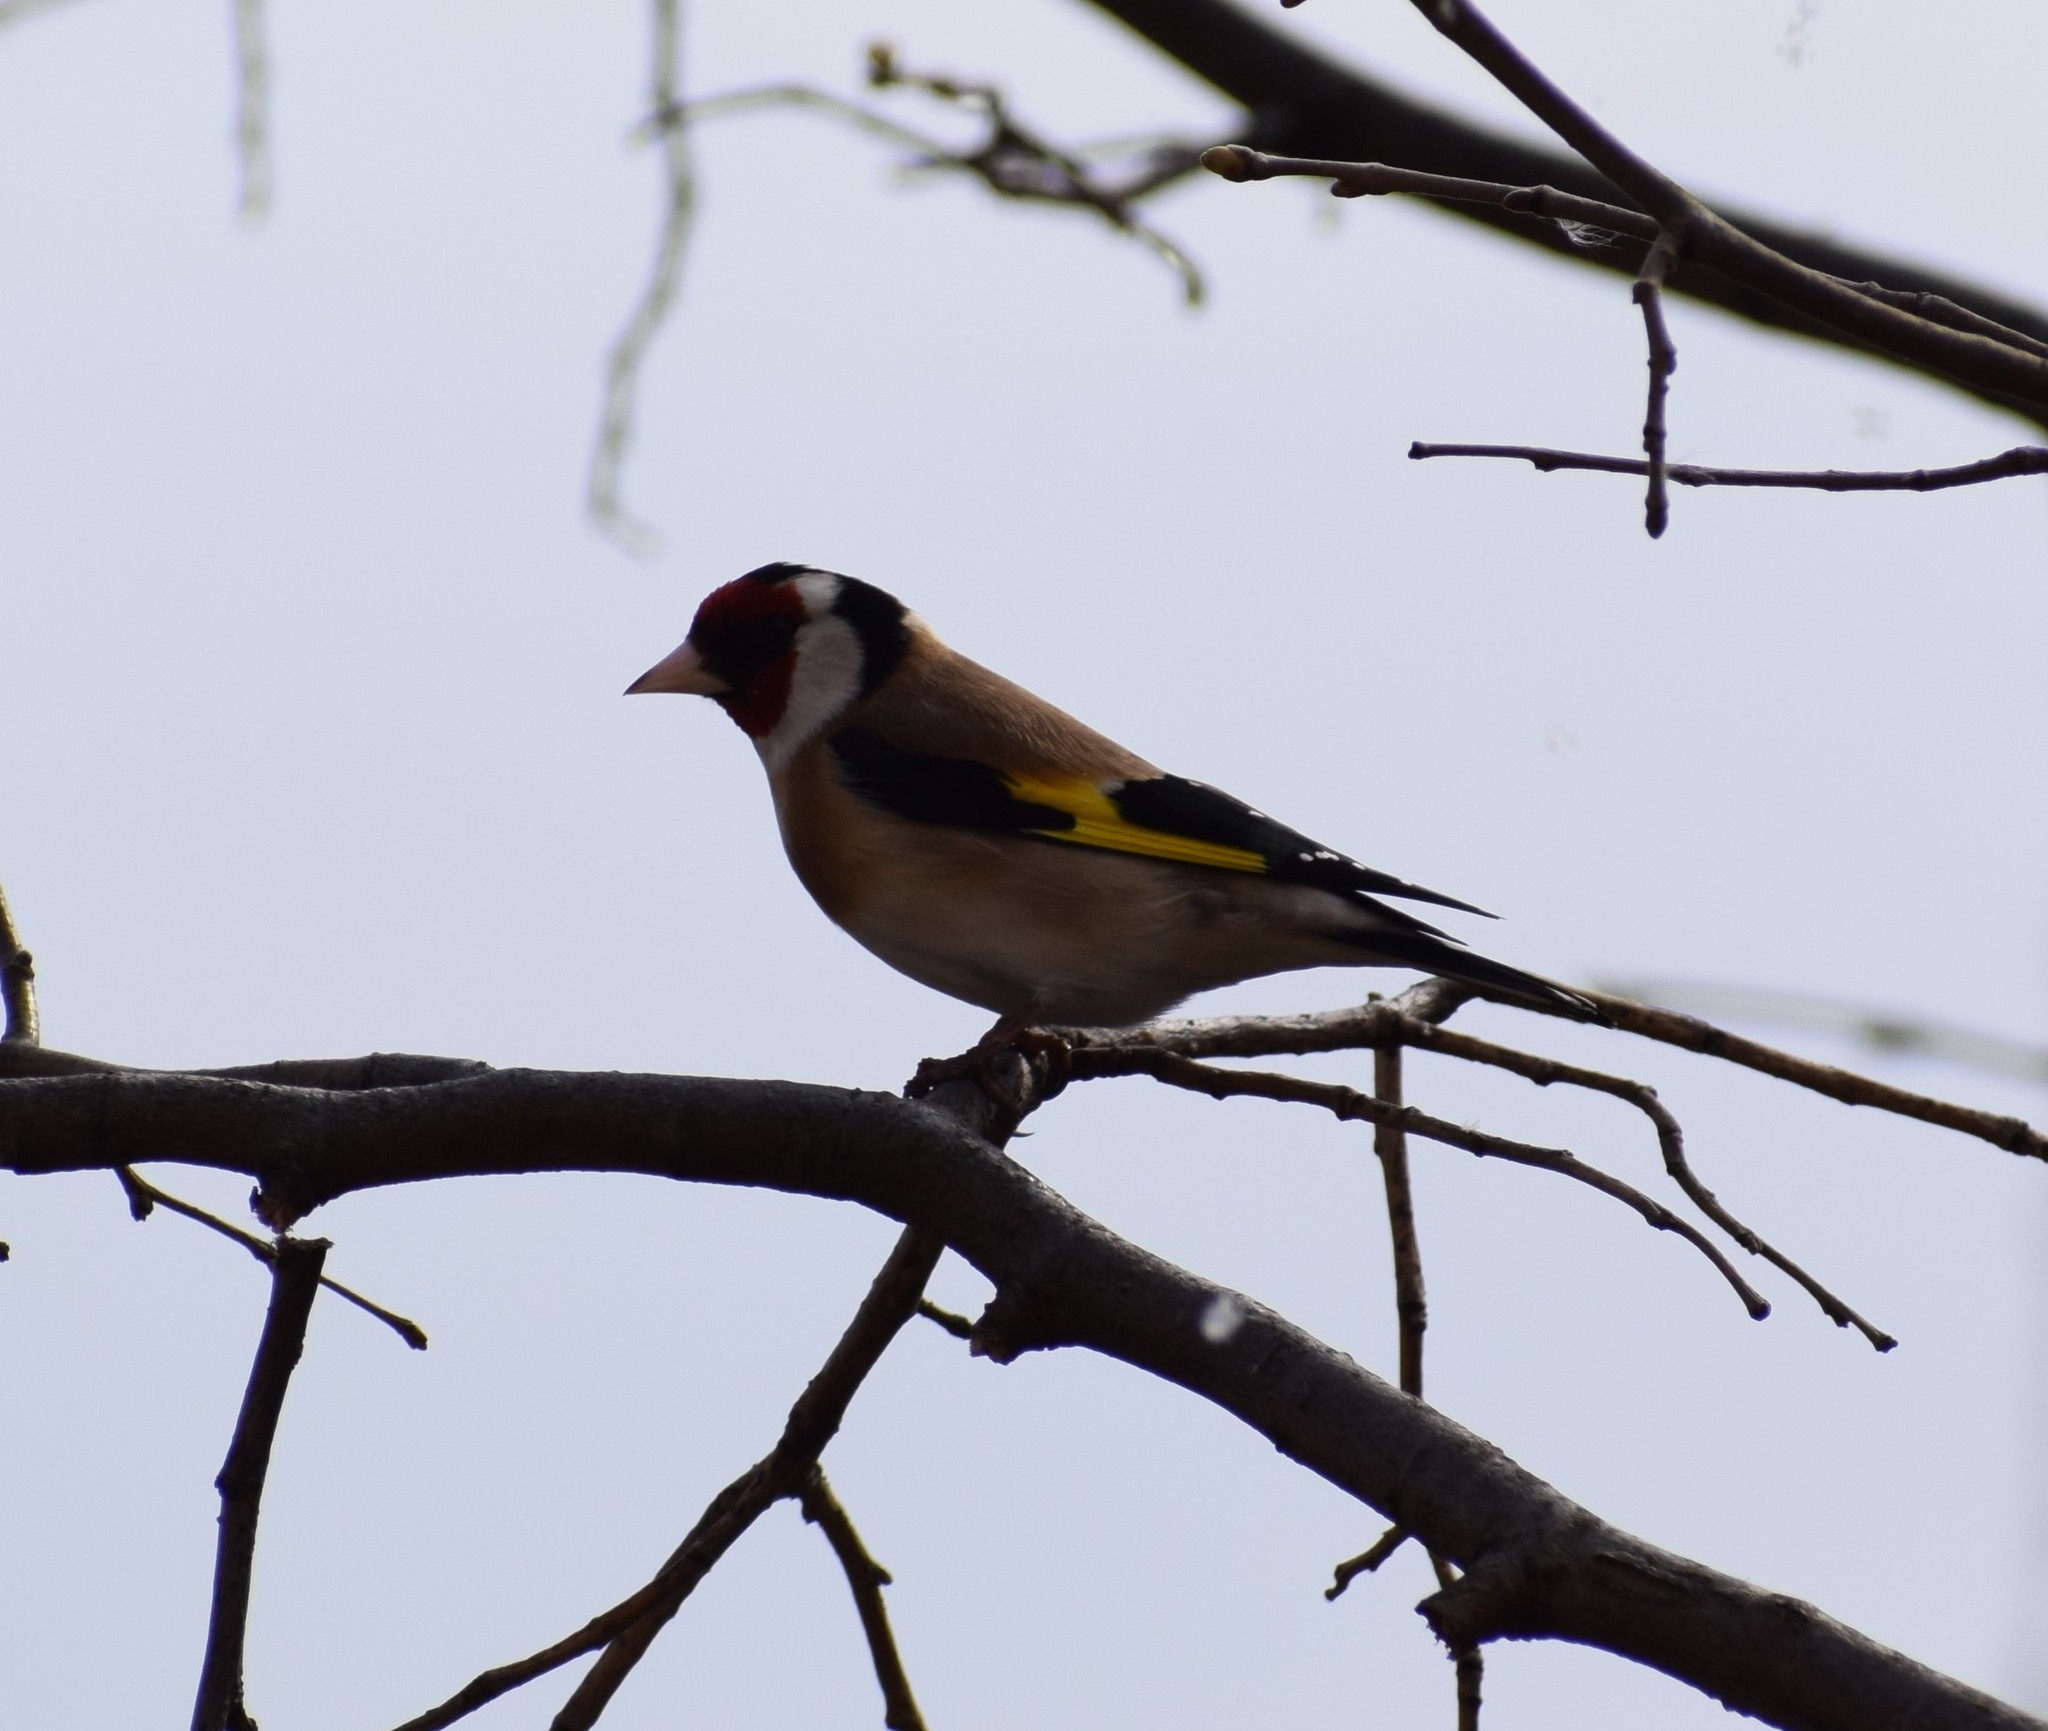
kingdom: Animalia
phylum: Chordata
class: Aves
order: Passeriformes
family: Fringillidae
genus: Carduelis
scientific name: Carduelis carduelis
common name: European goldfinch
